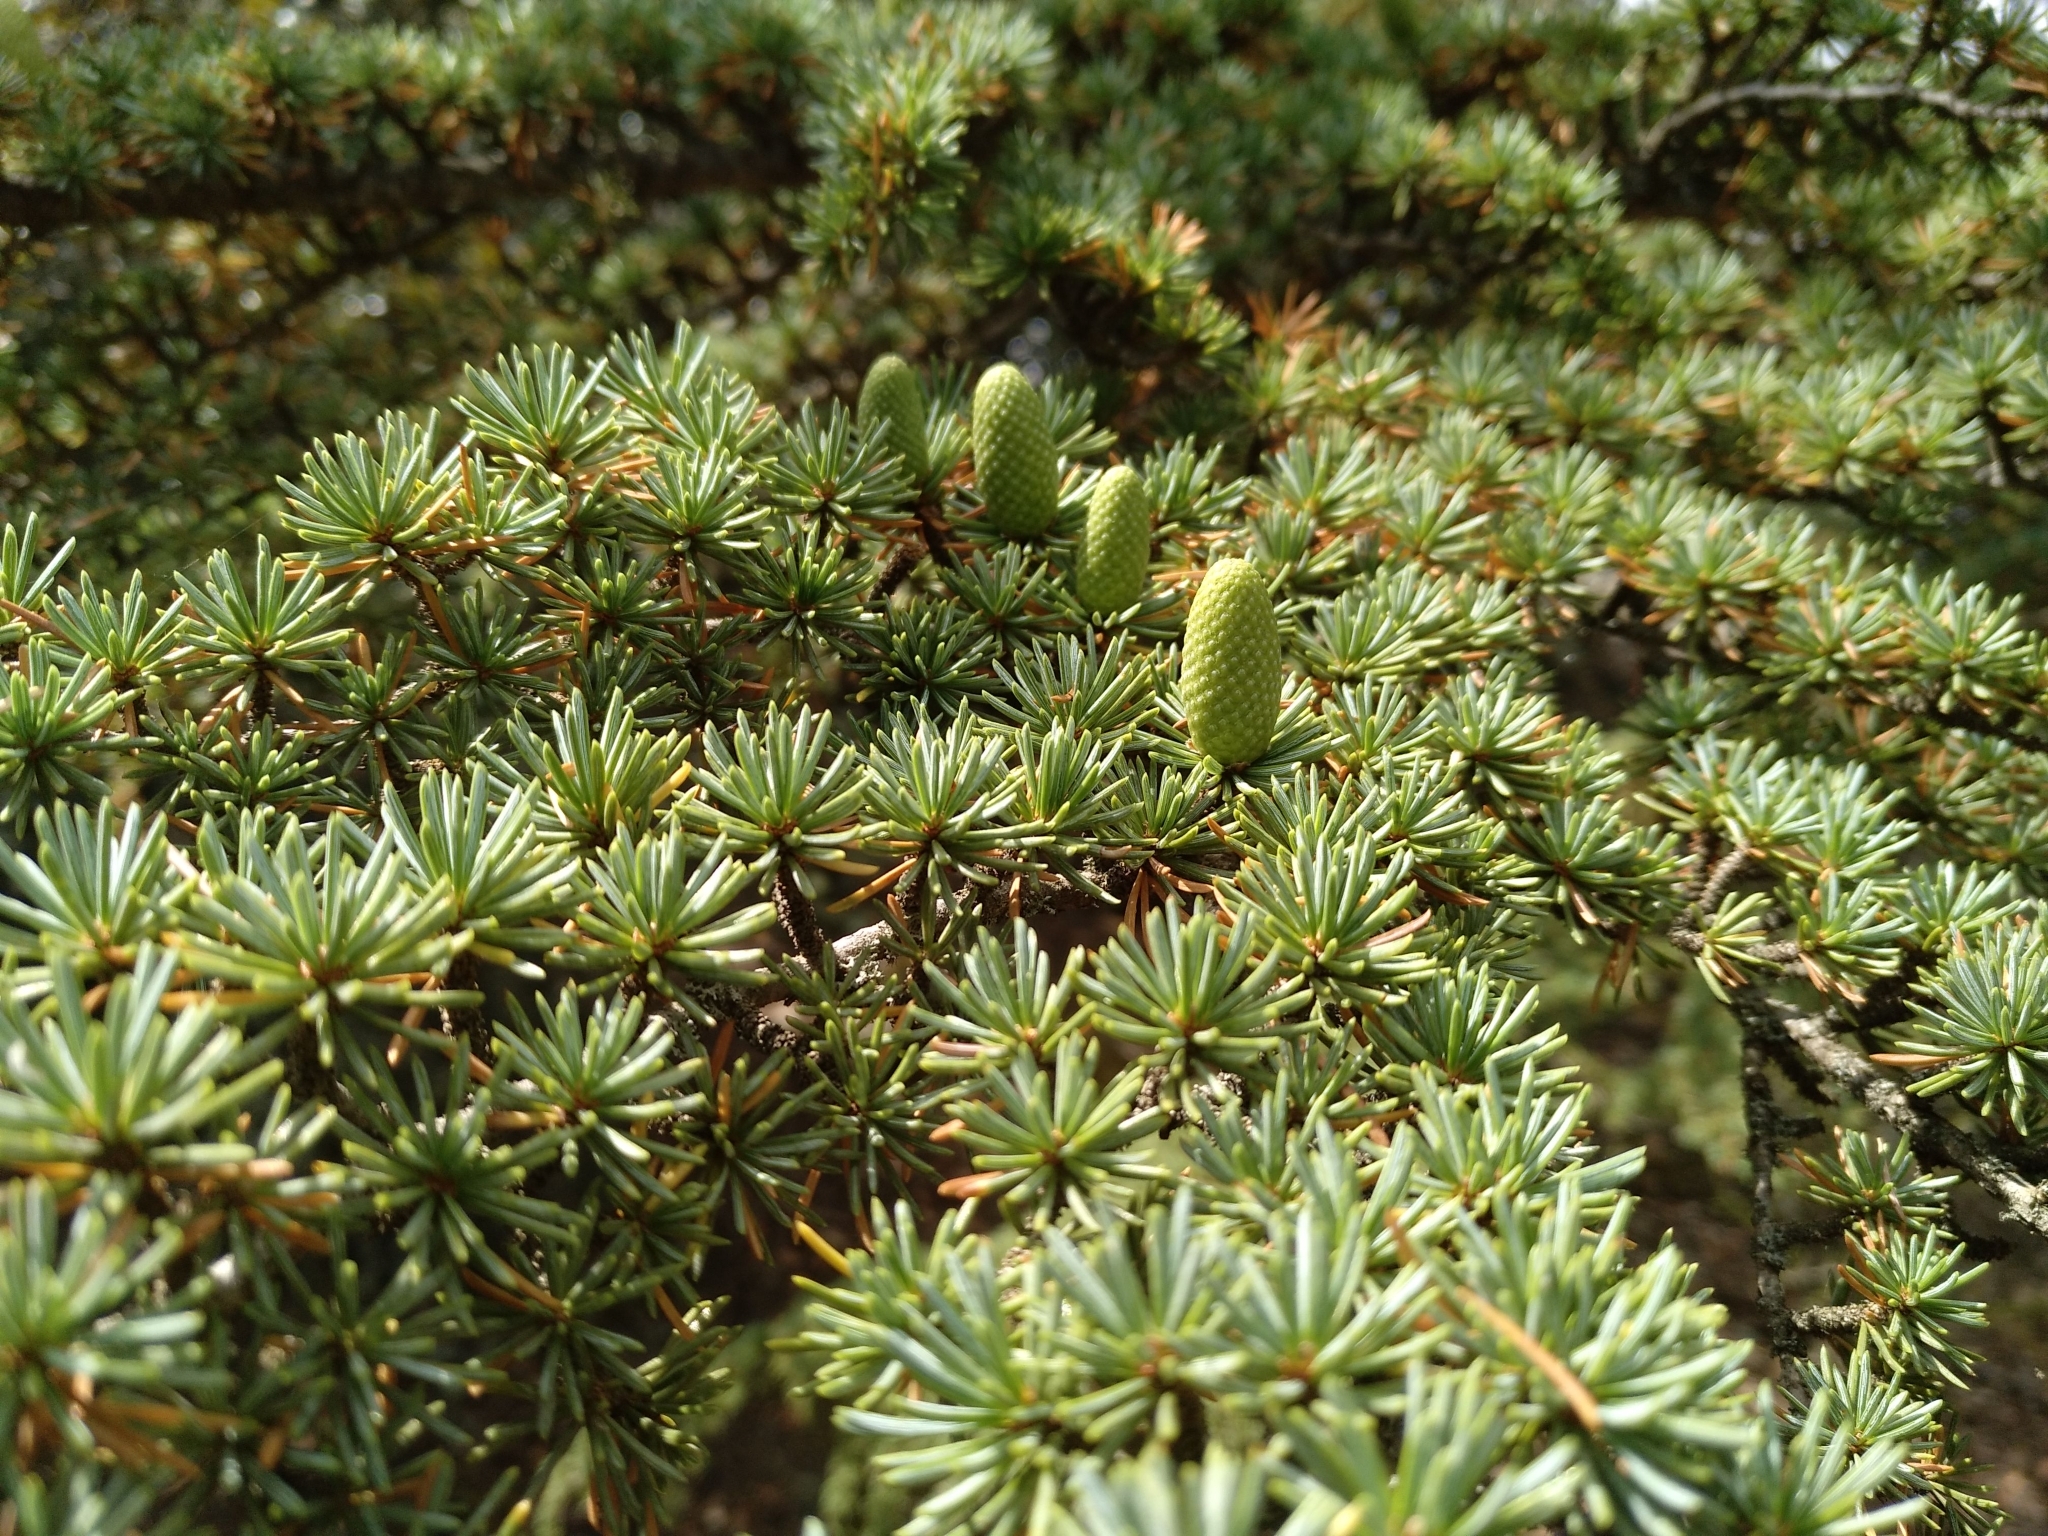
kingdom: Plantae
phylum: Tracheophyta
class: Pinopsida
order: Pinales
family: Pinaceae
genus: Cedrus
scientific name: Cedrus brevifolia
